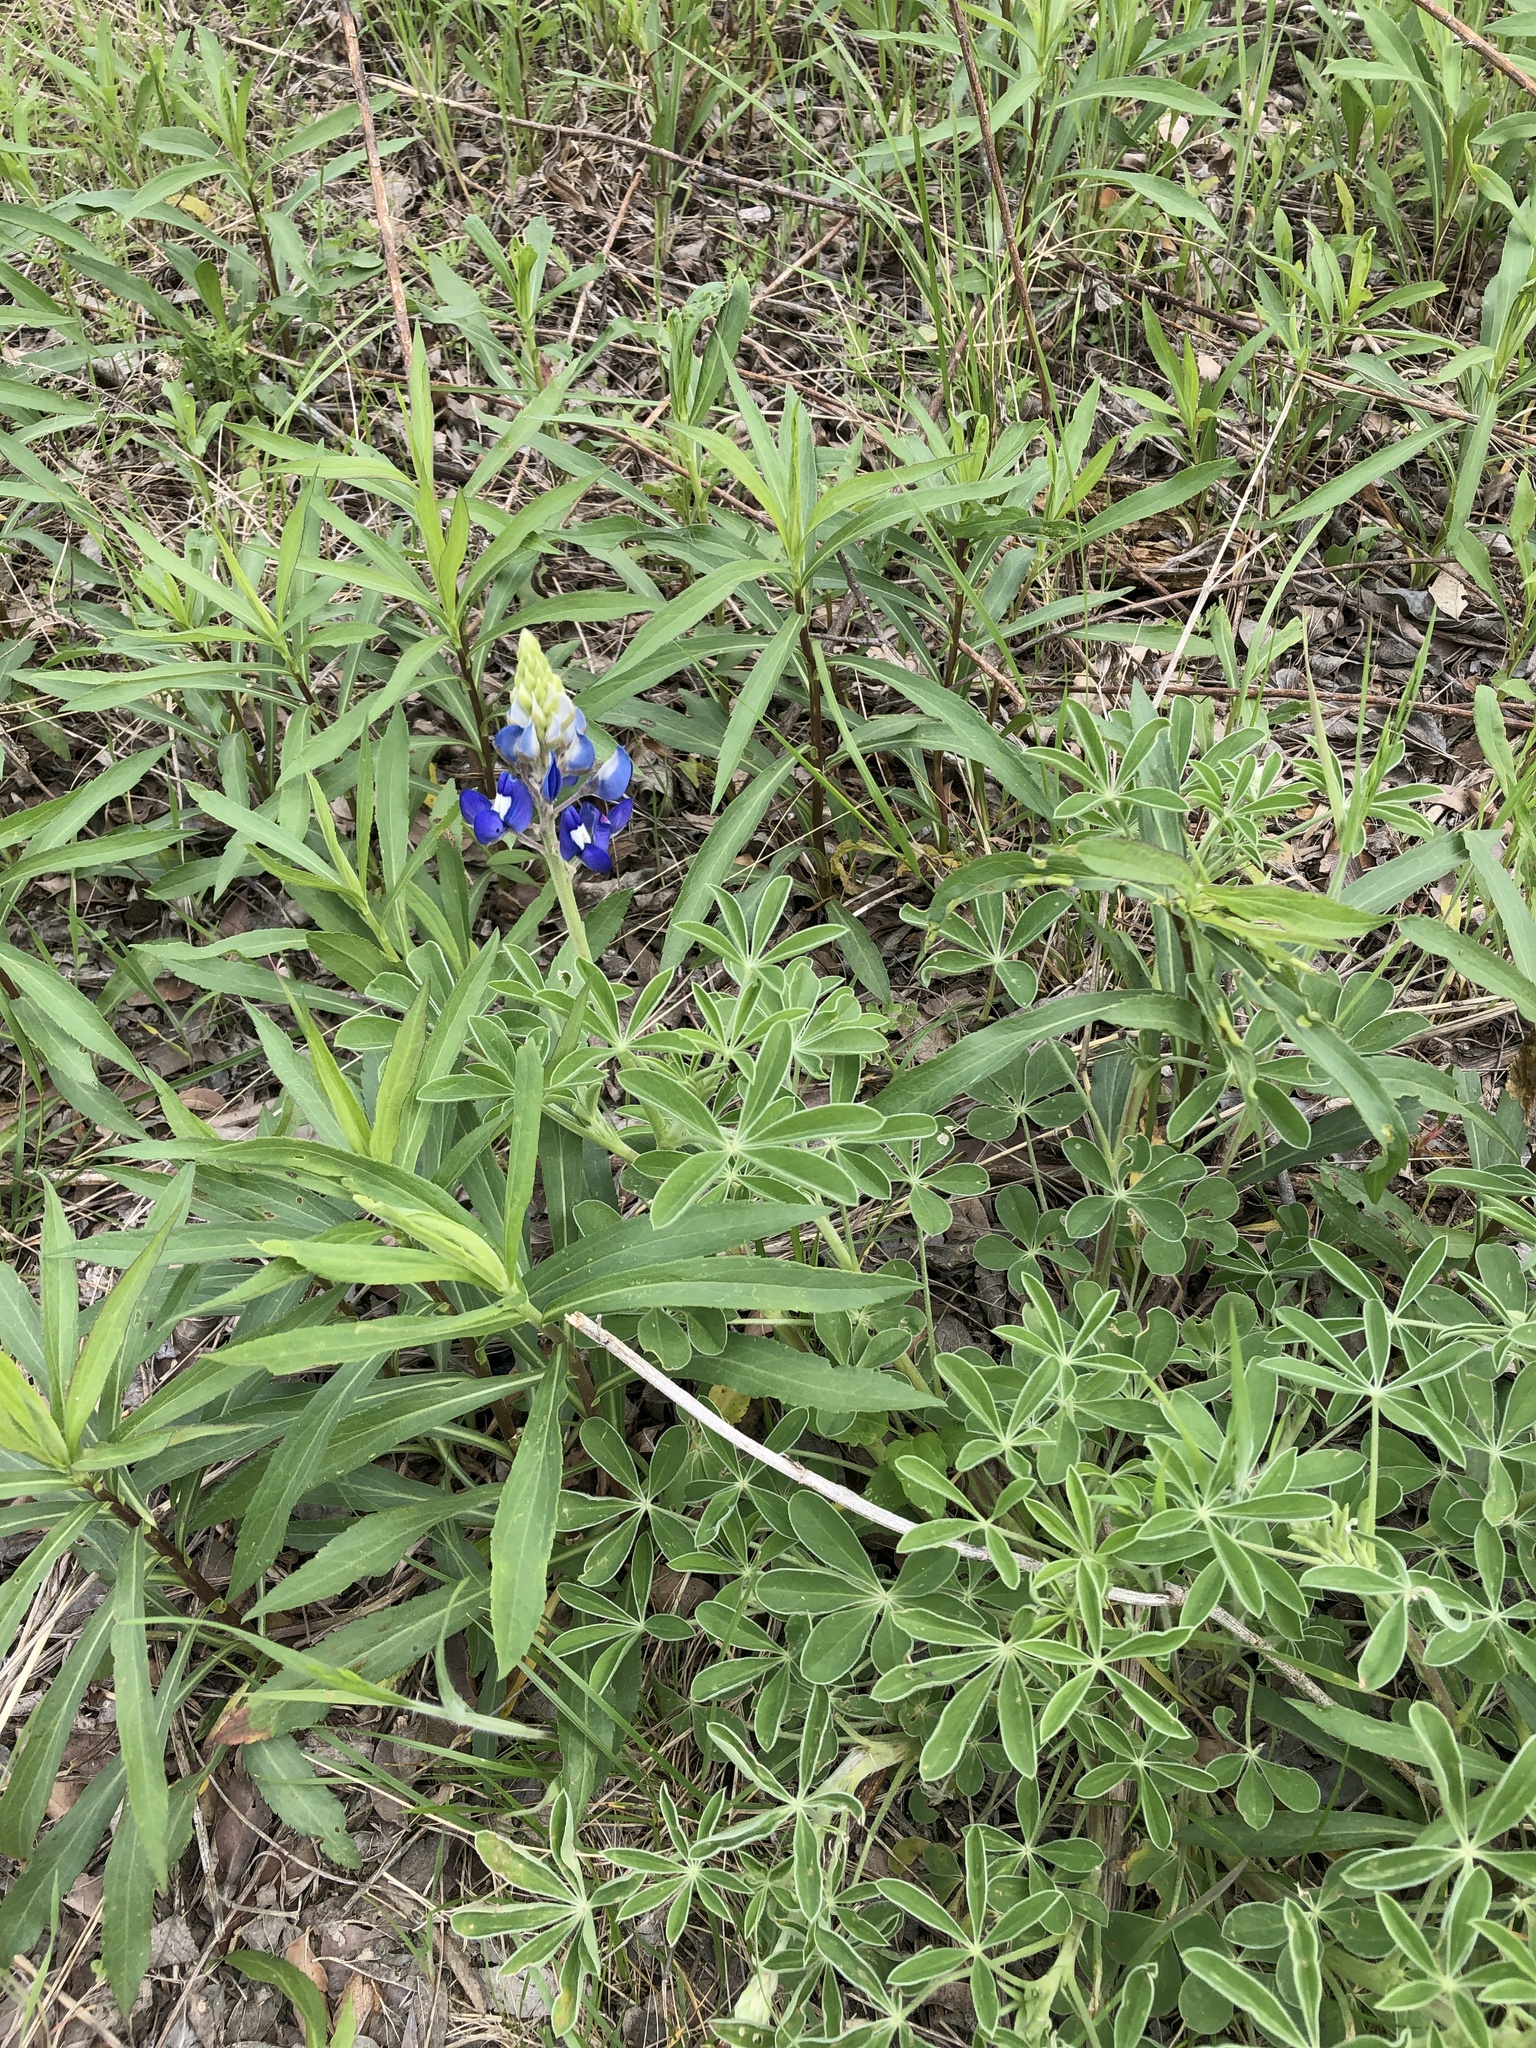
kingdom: Plantae
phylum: Tracheophyta
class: Magnoliopsida
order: Fabales
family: Fabaceae
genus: Lupinus
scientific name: Lupinus texensis
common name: Texas bluebonnet
